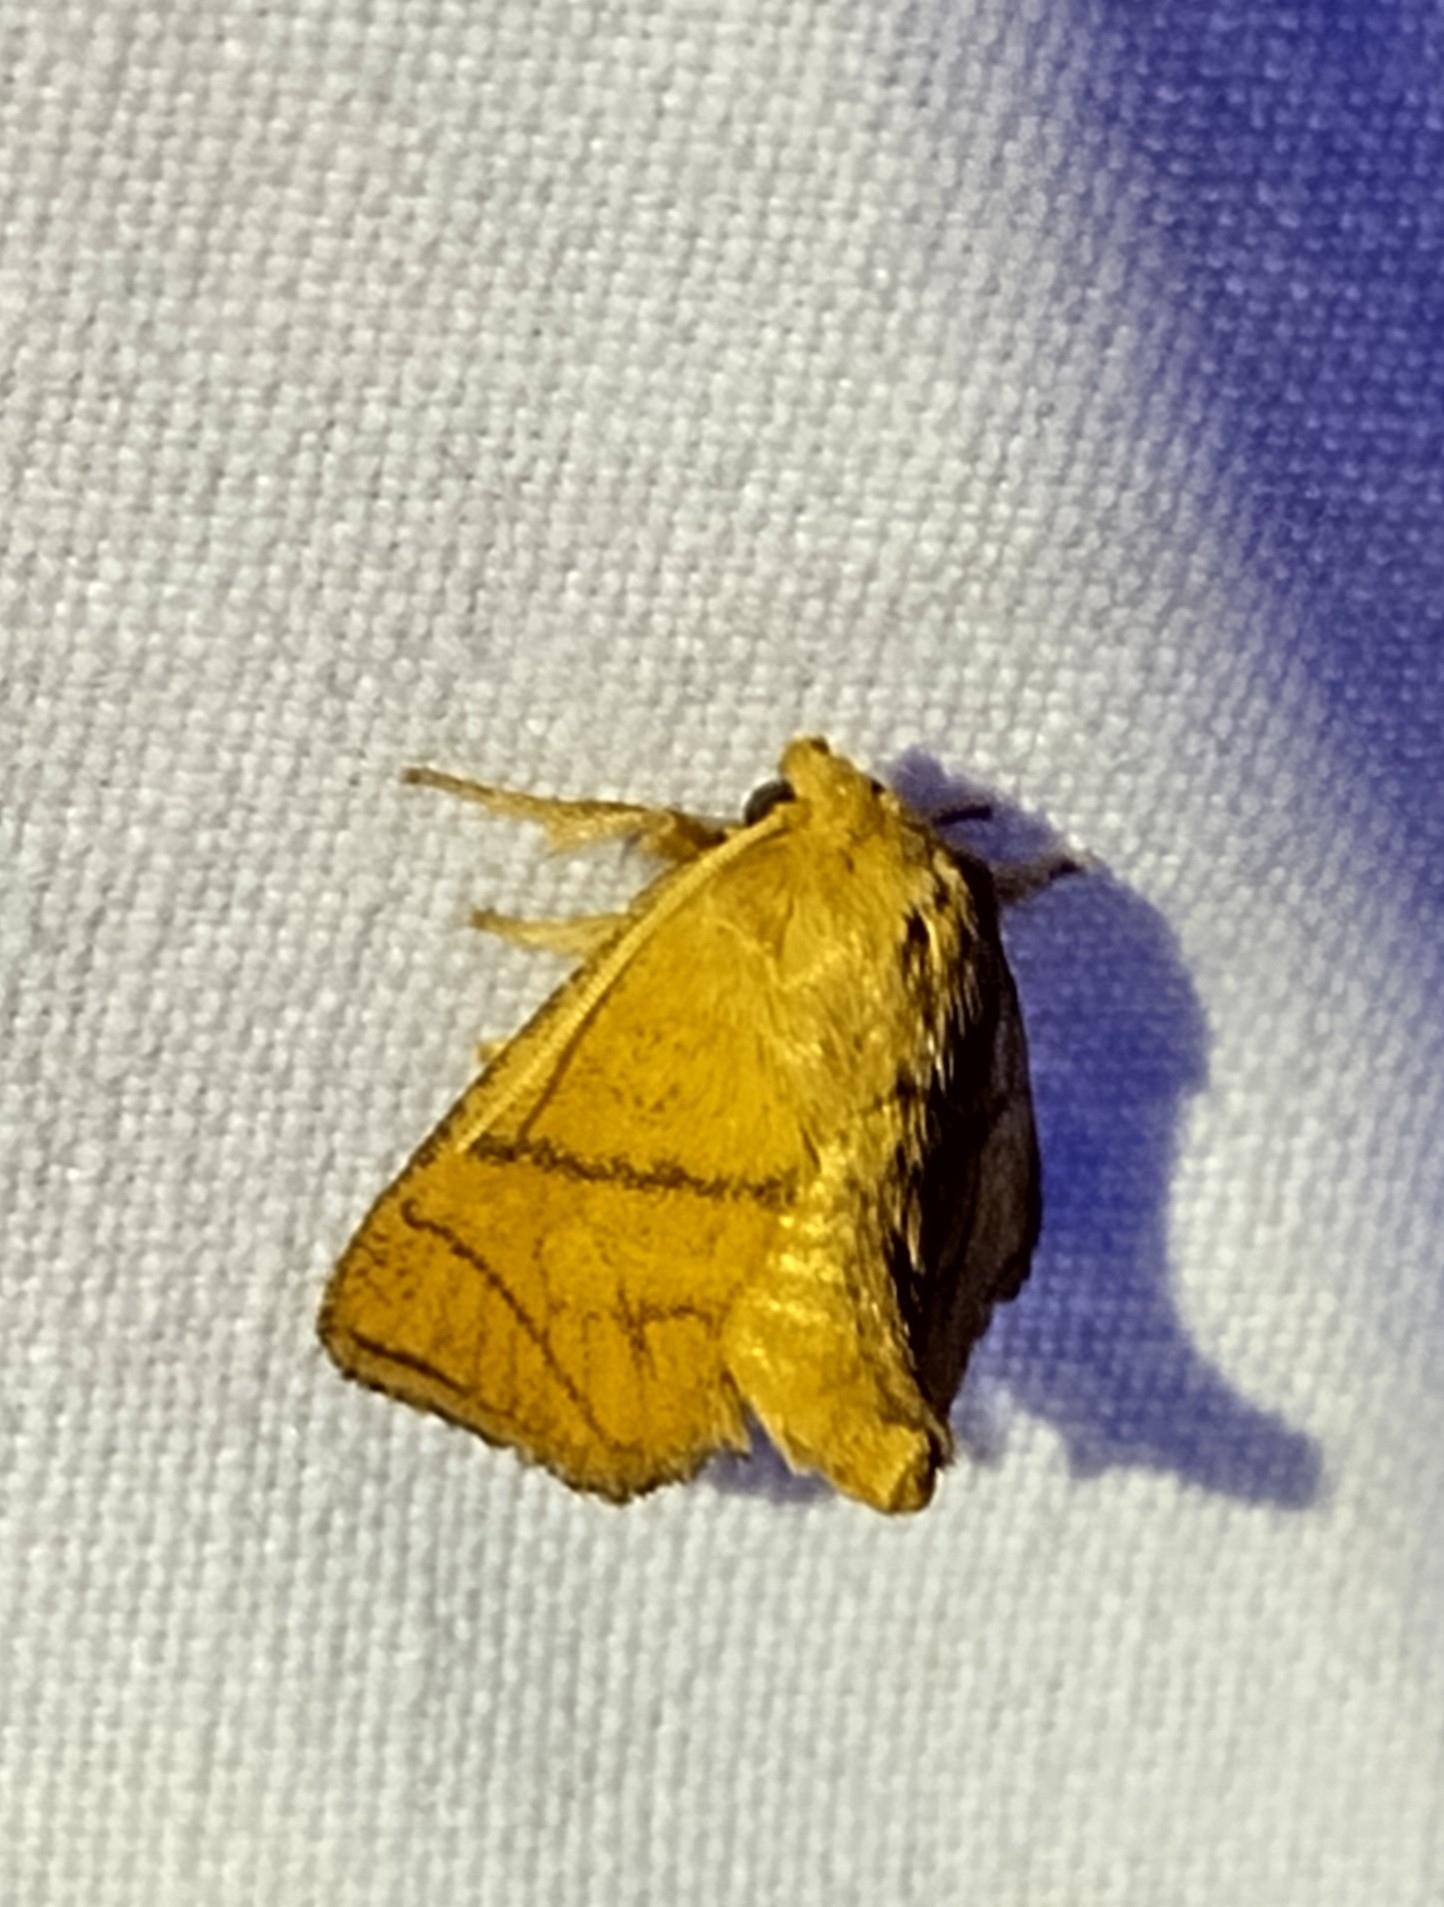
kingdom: Animalia
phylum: Arthropoda
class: Insecta
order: Lepidoptera
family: Limacodidae
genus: Apoda
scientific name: Apoda y-inversa
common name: Yellow-collared slug moth
